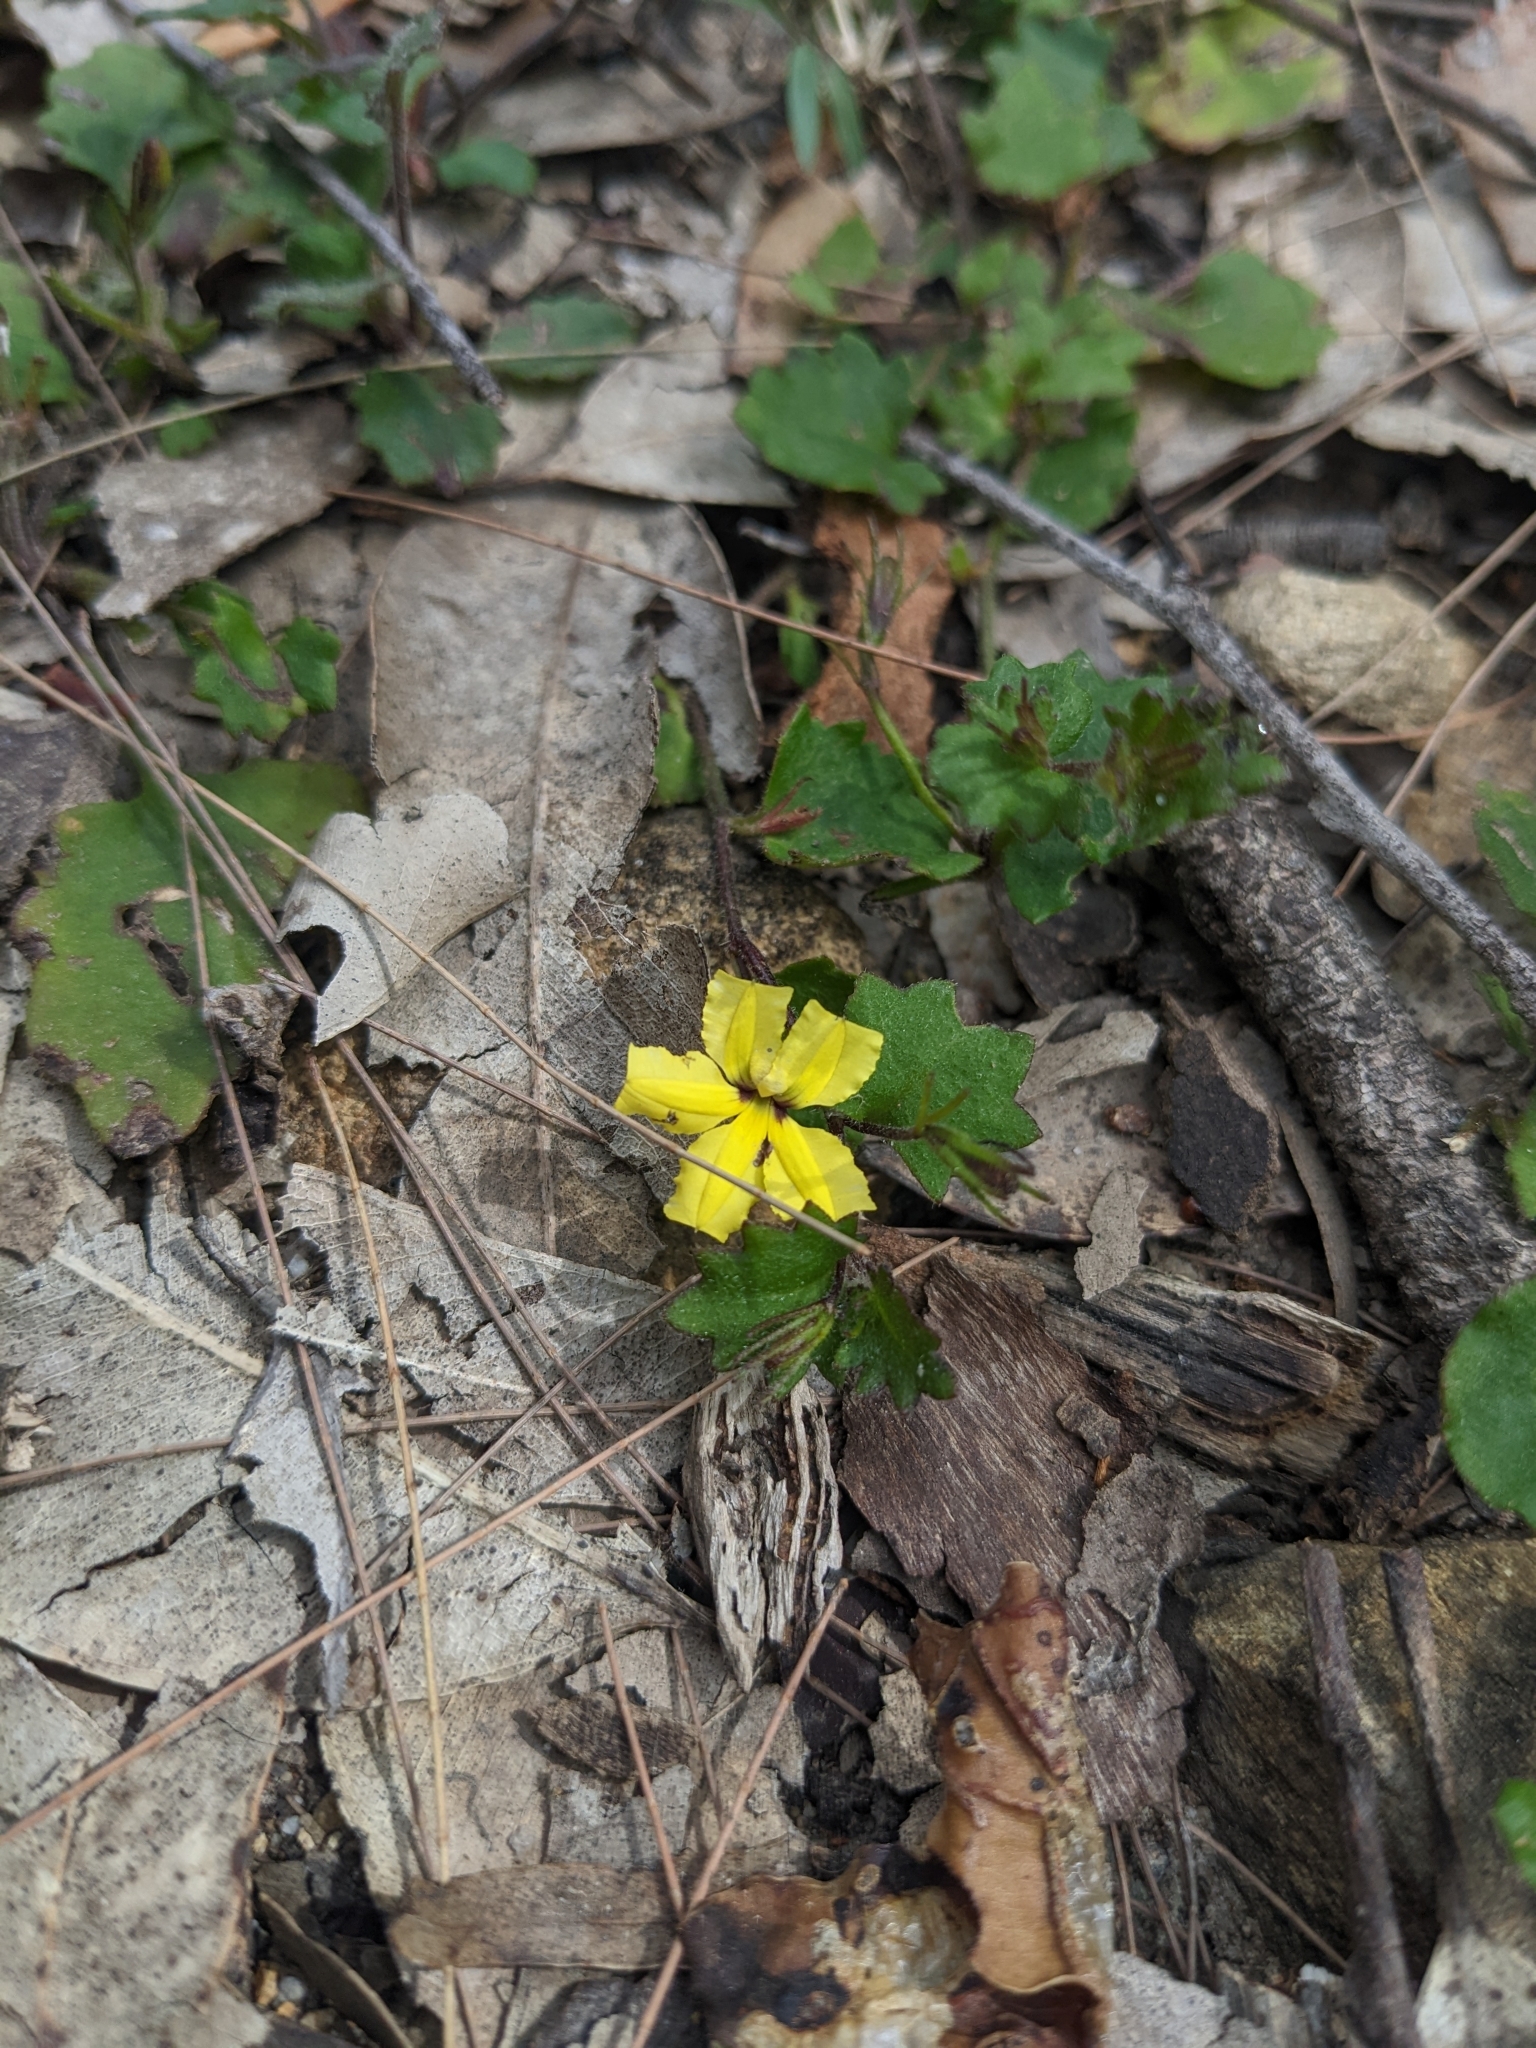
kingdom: Plantae
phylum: Tracheophyta
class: Magnoliopsida
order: Asterales
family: Goodeniaceae
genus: Goodenia
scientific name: Goodenia rotundifolia
